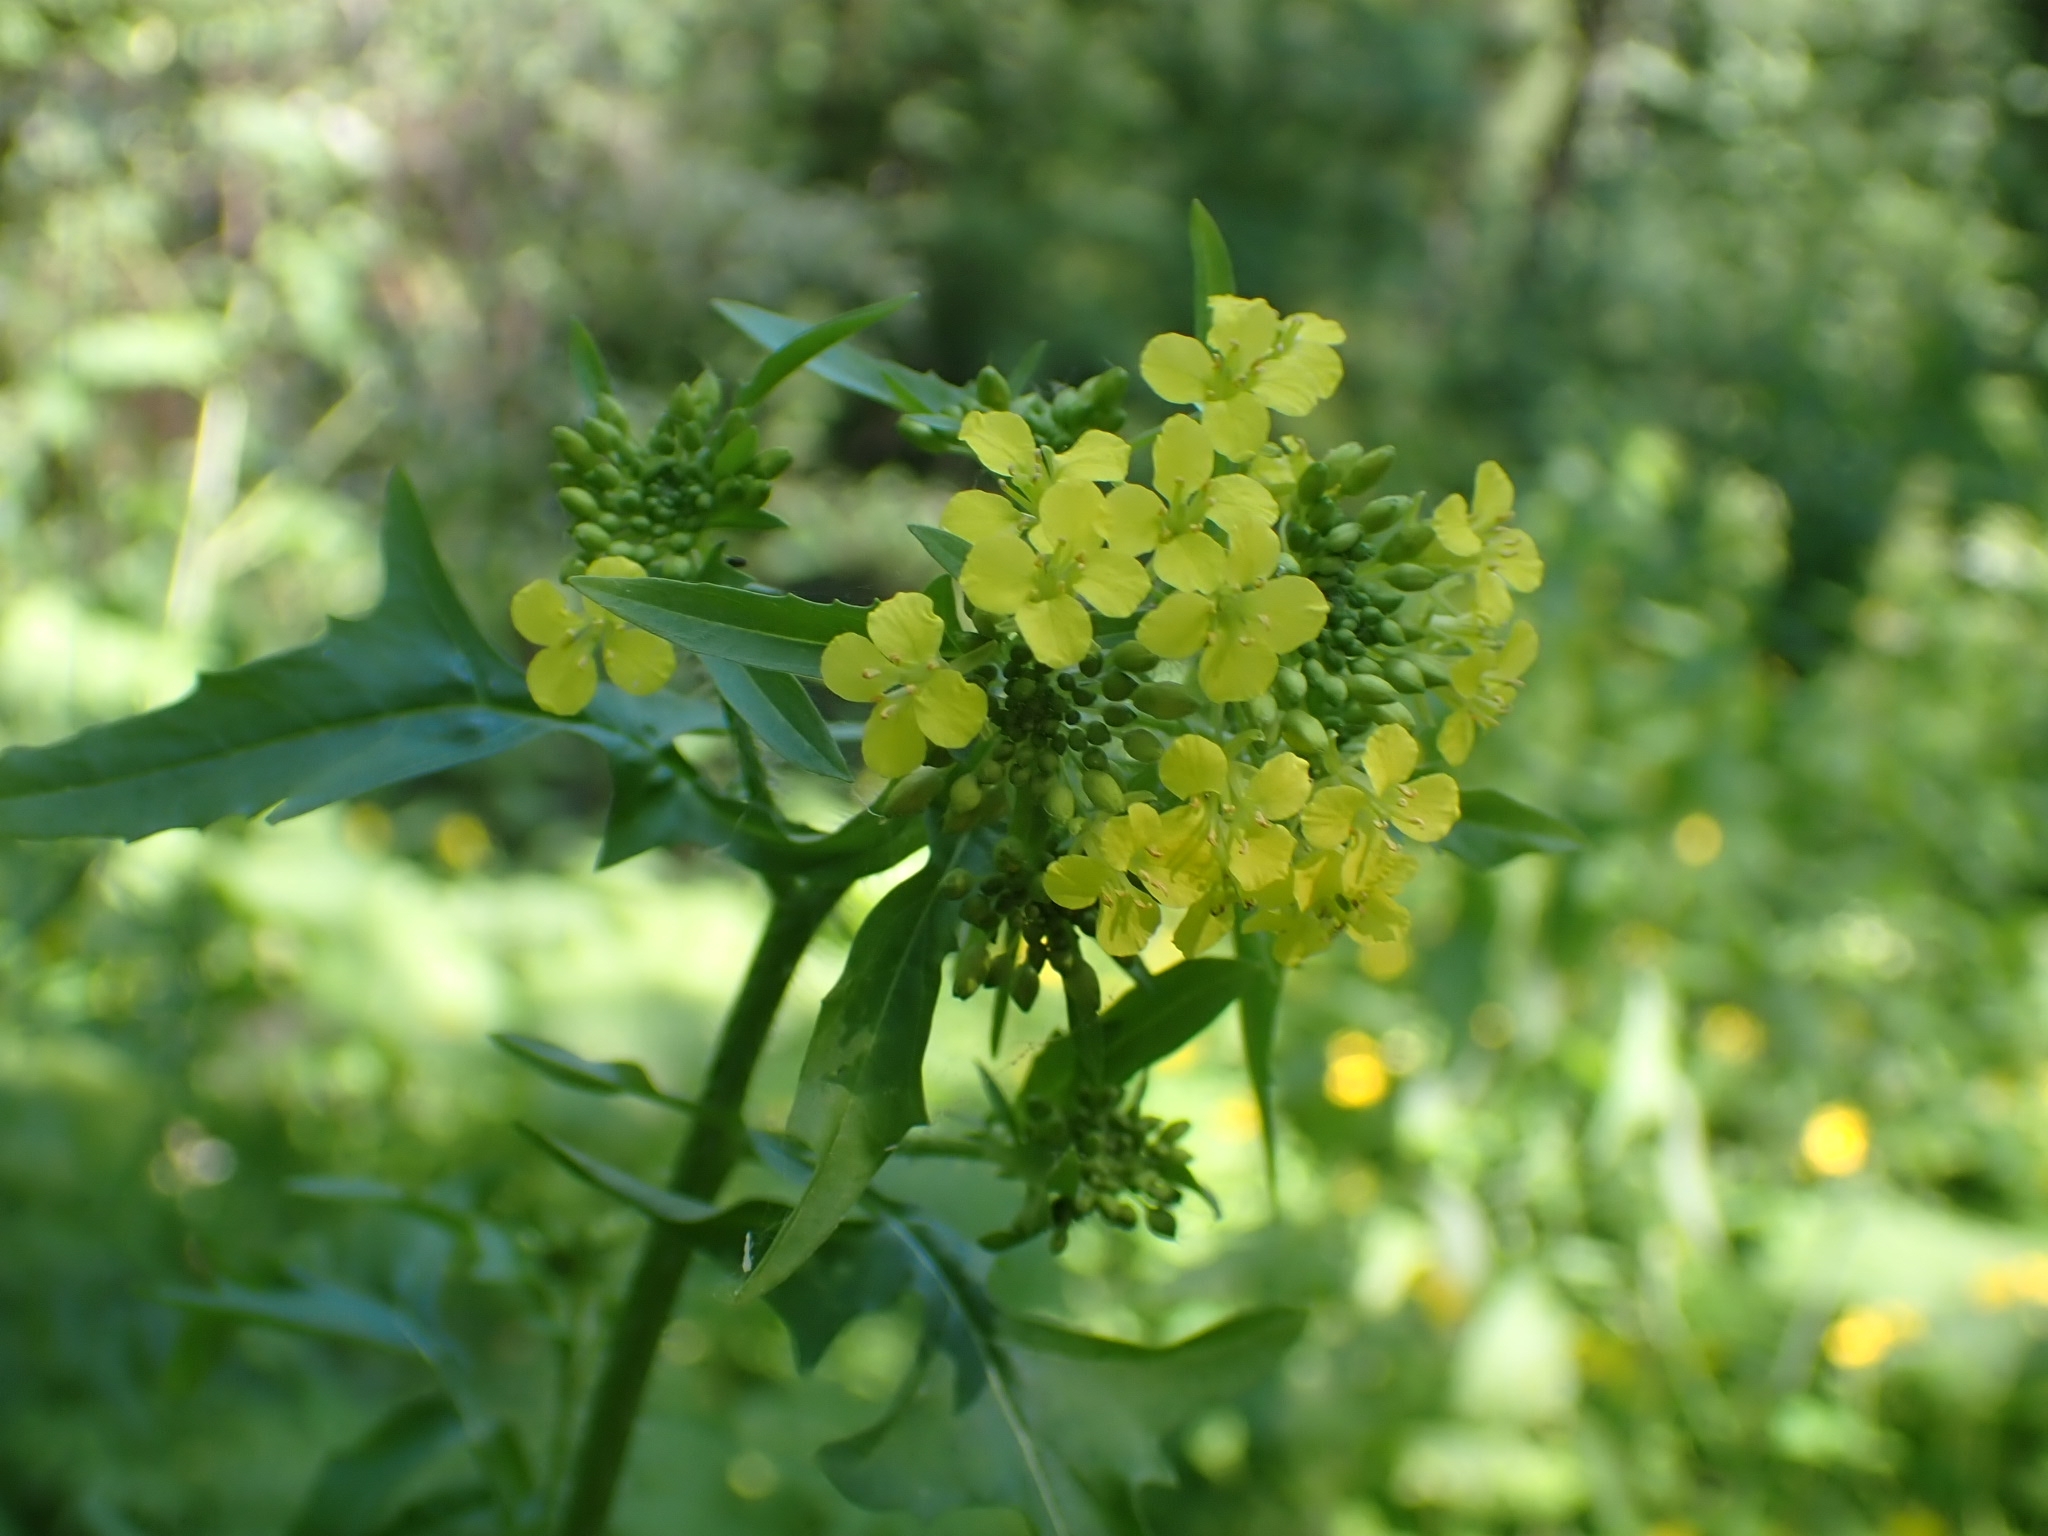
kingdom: Plantae
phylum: Tracheophyta
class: Magnoliopsida
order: Brassicales
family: Brassicaceae
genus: Sisymbrium
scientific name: Sisymbrium loeselii
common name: False london-rocket
